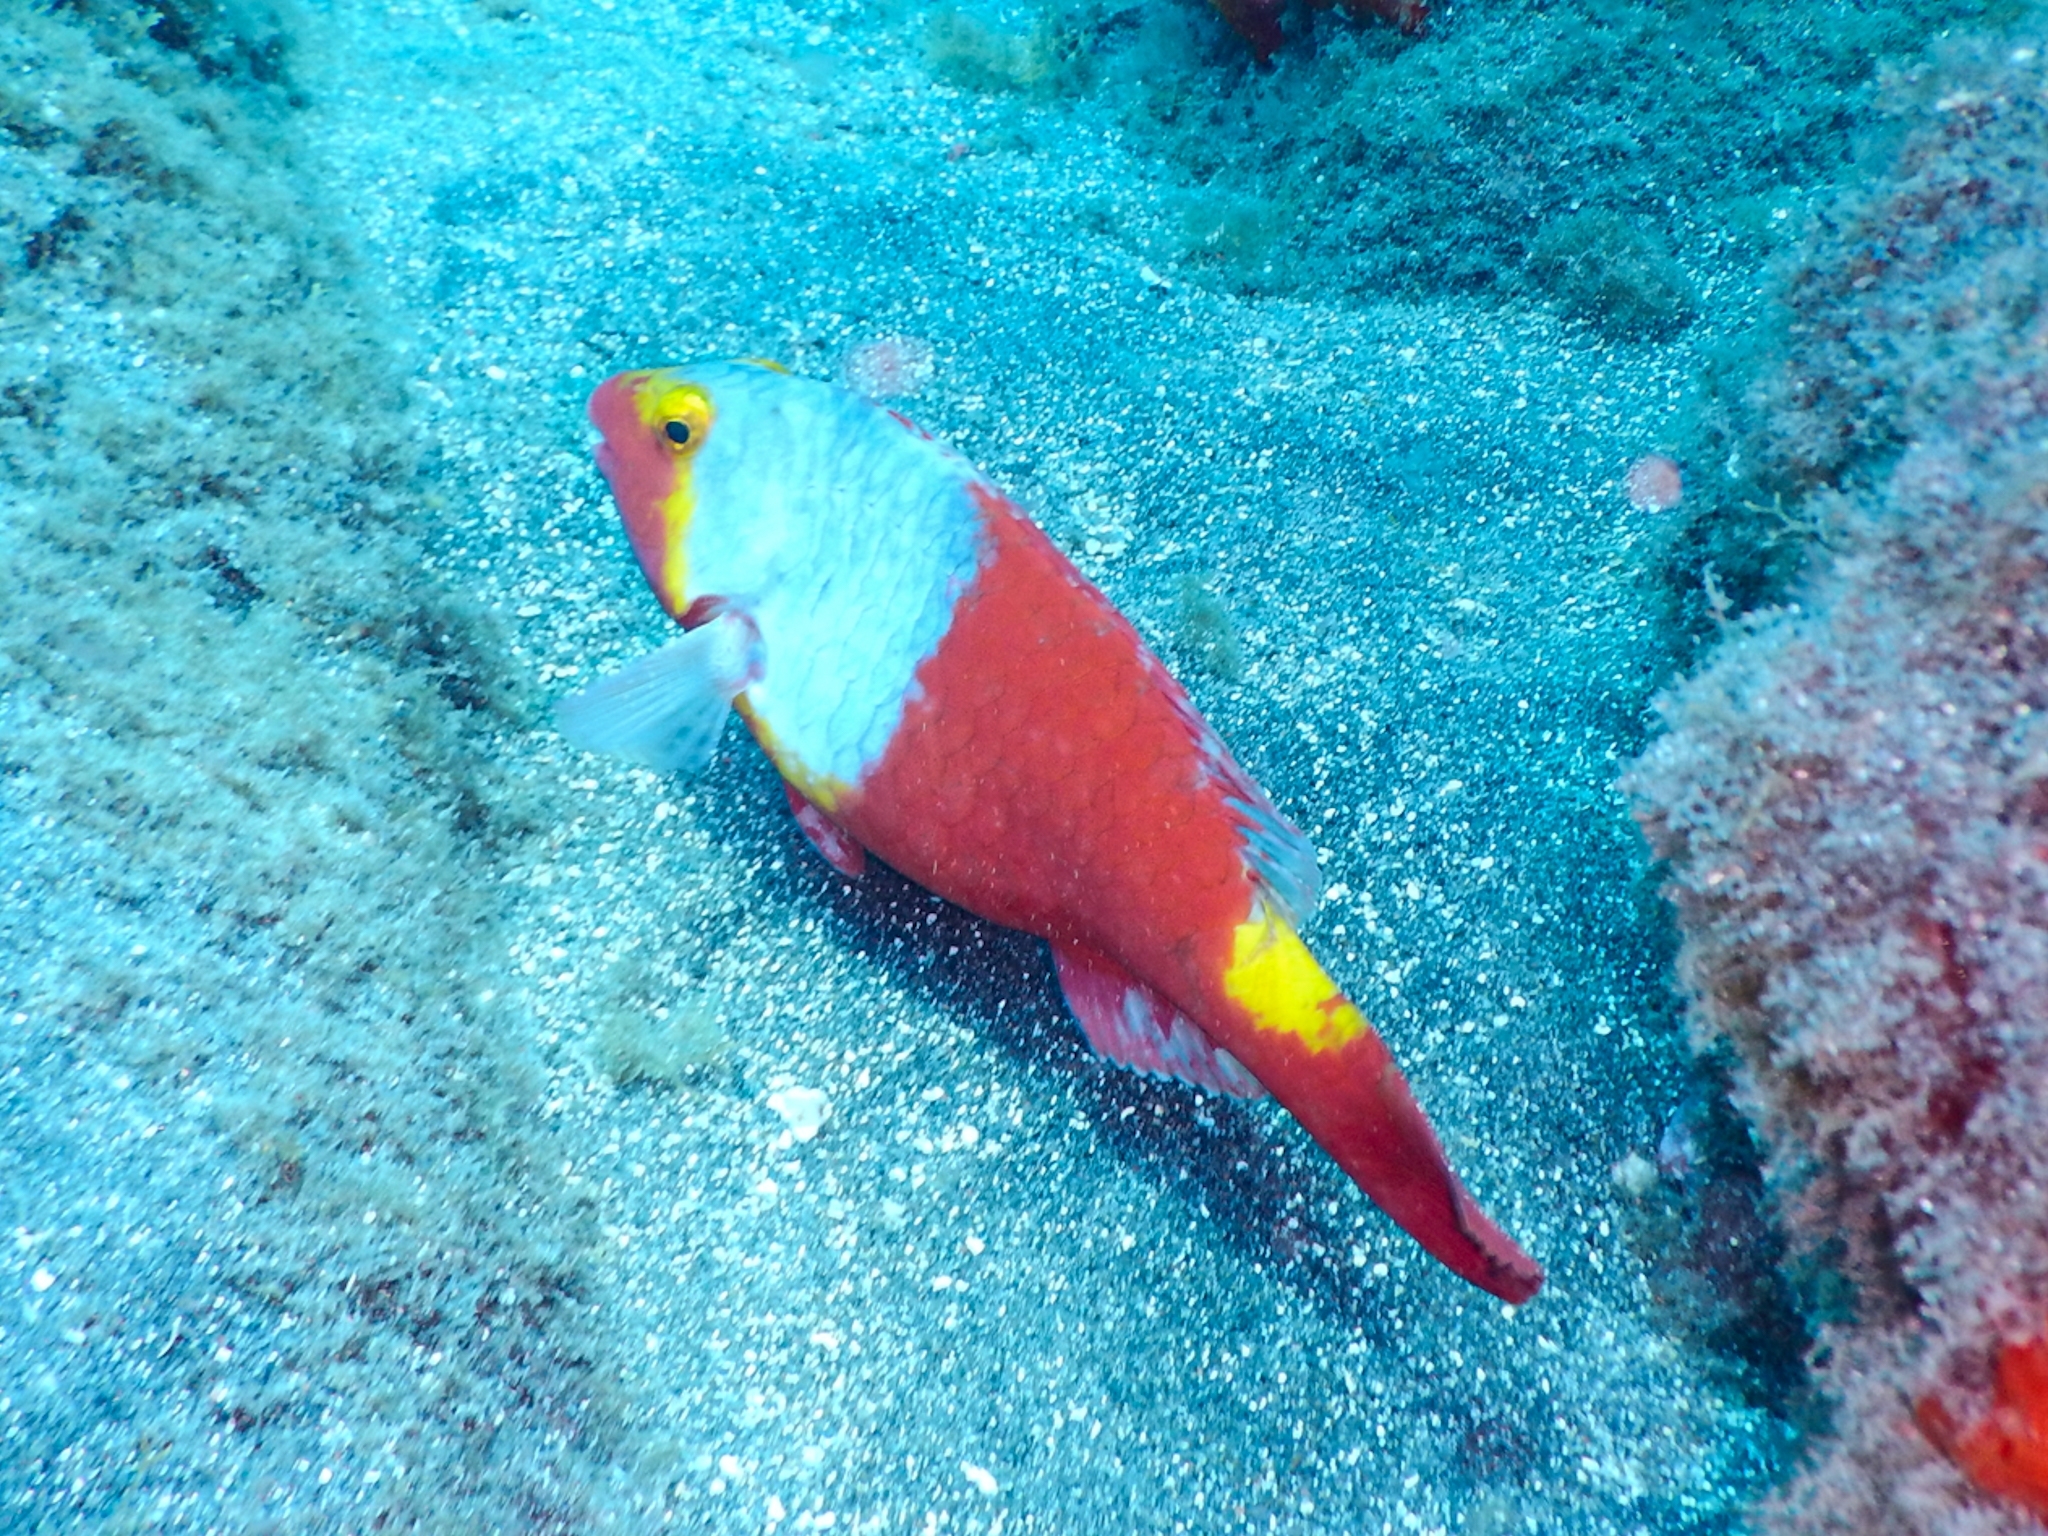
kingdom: Animalia
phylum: Chordata
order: Perciformes
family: Scaridae
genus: Sparisoma
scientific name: Sparisoma cretense
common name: Parrotfish
